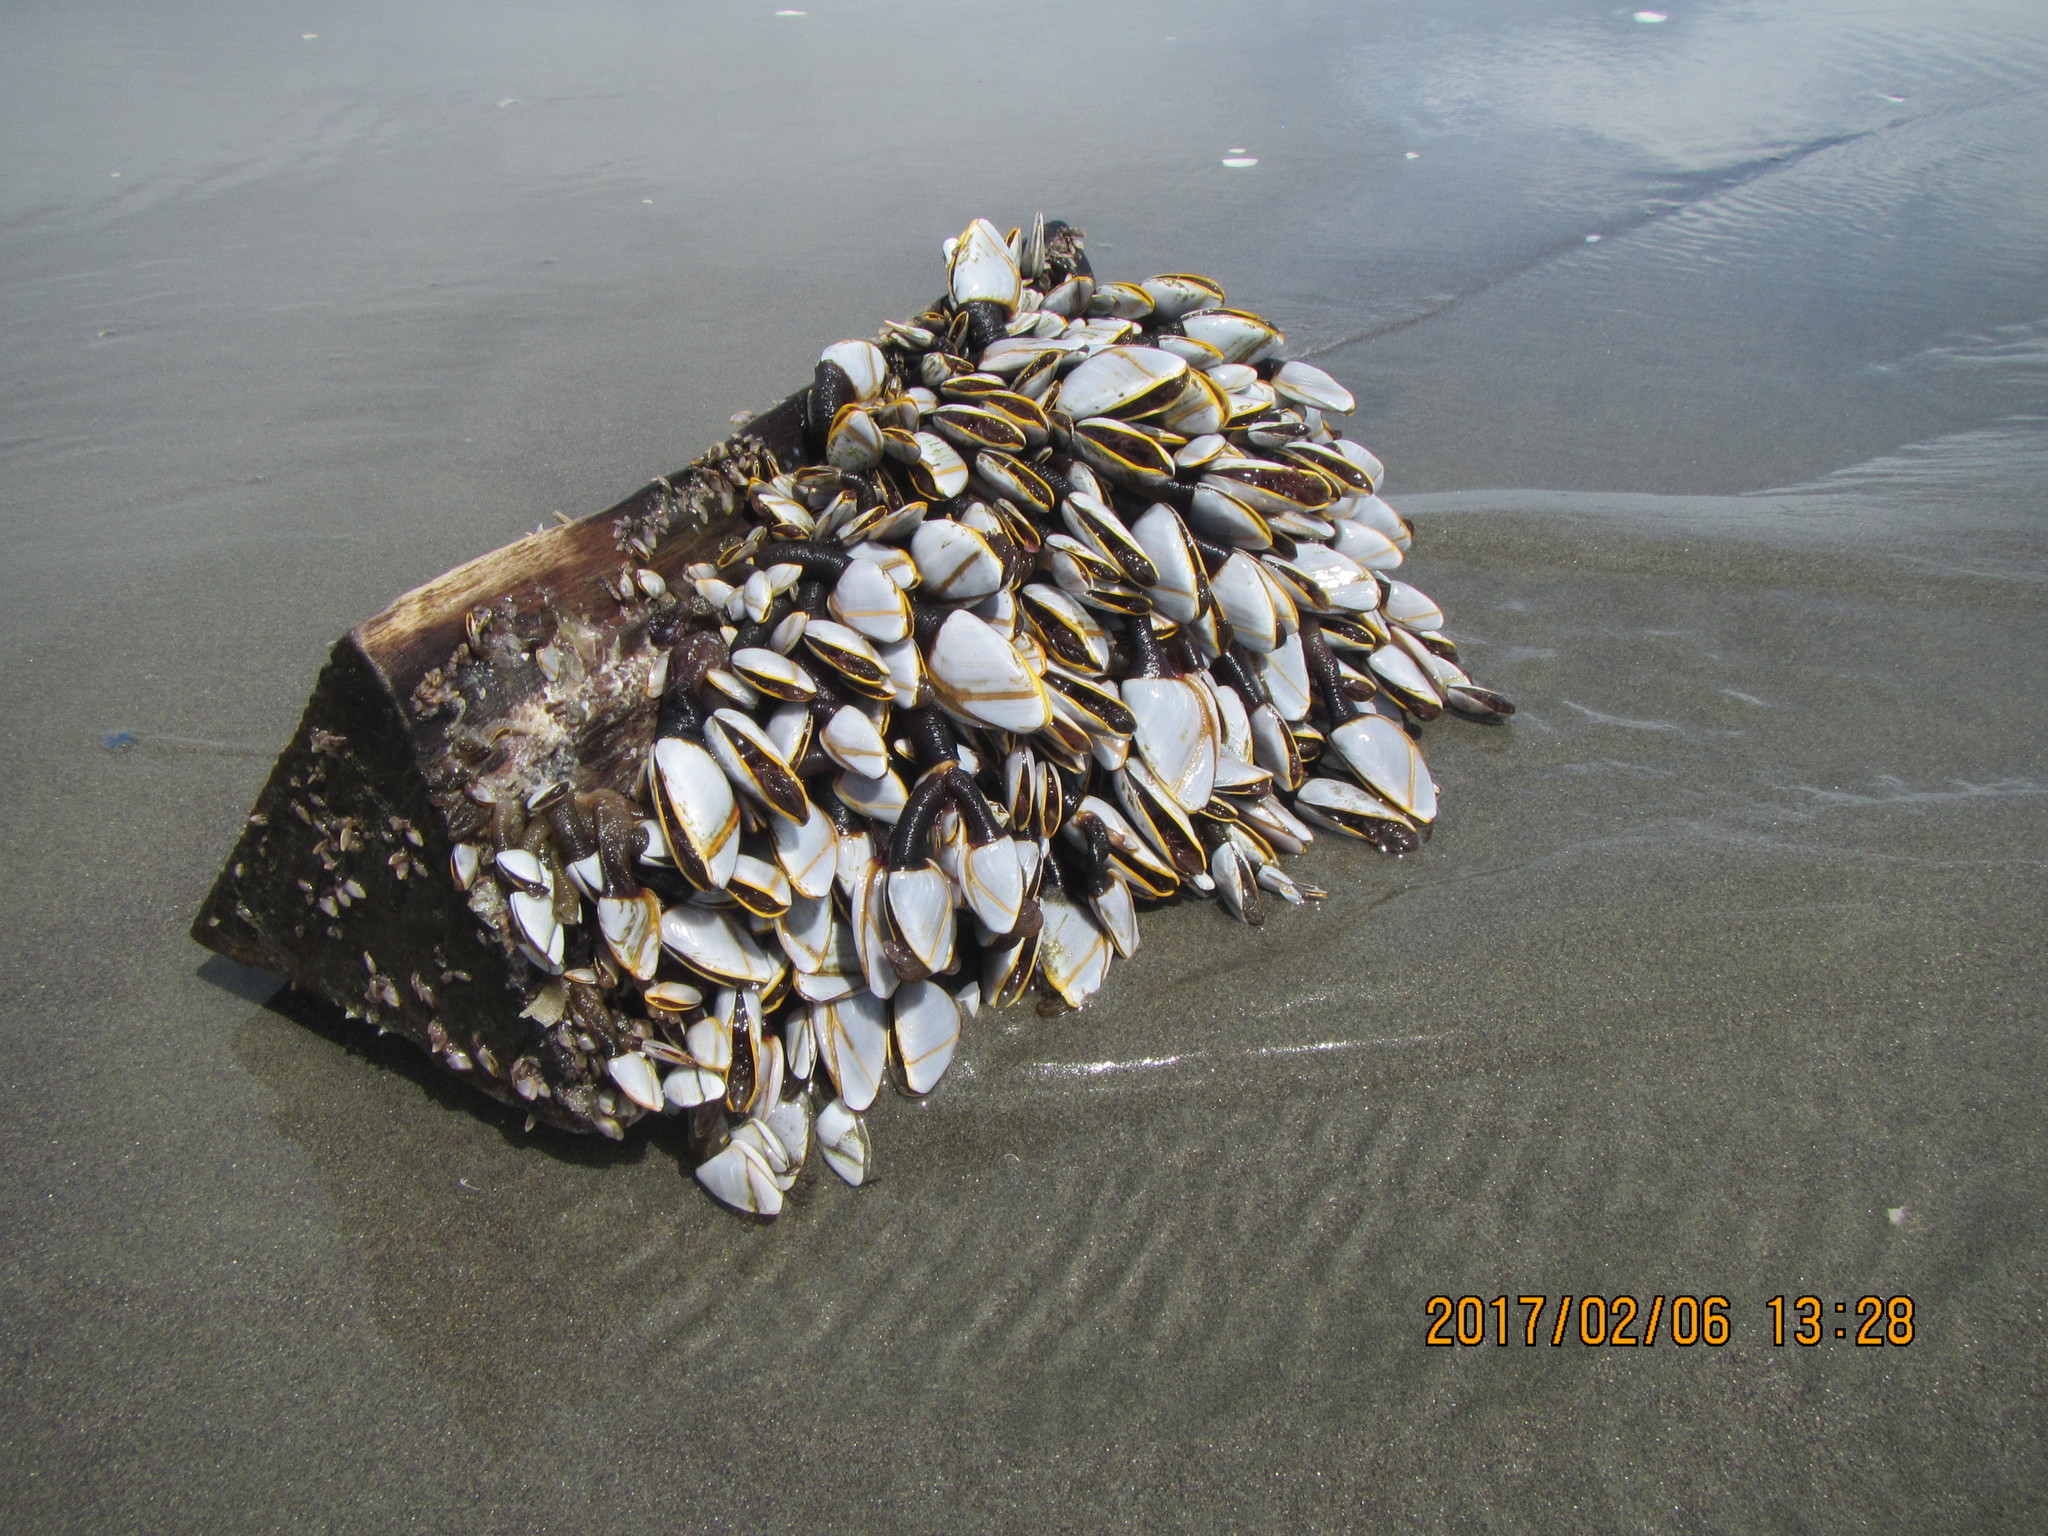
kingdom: Animalia
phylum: Arthropoda
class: Maxillopoda
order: Pedunculata
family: Lepadidae
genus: Lepas
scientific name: Lepas anatifera
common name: Common goose barnacle
